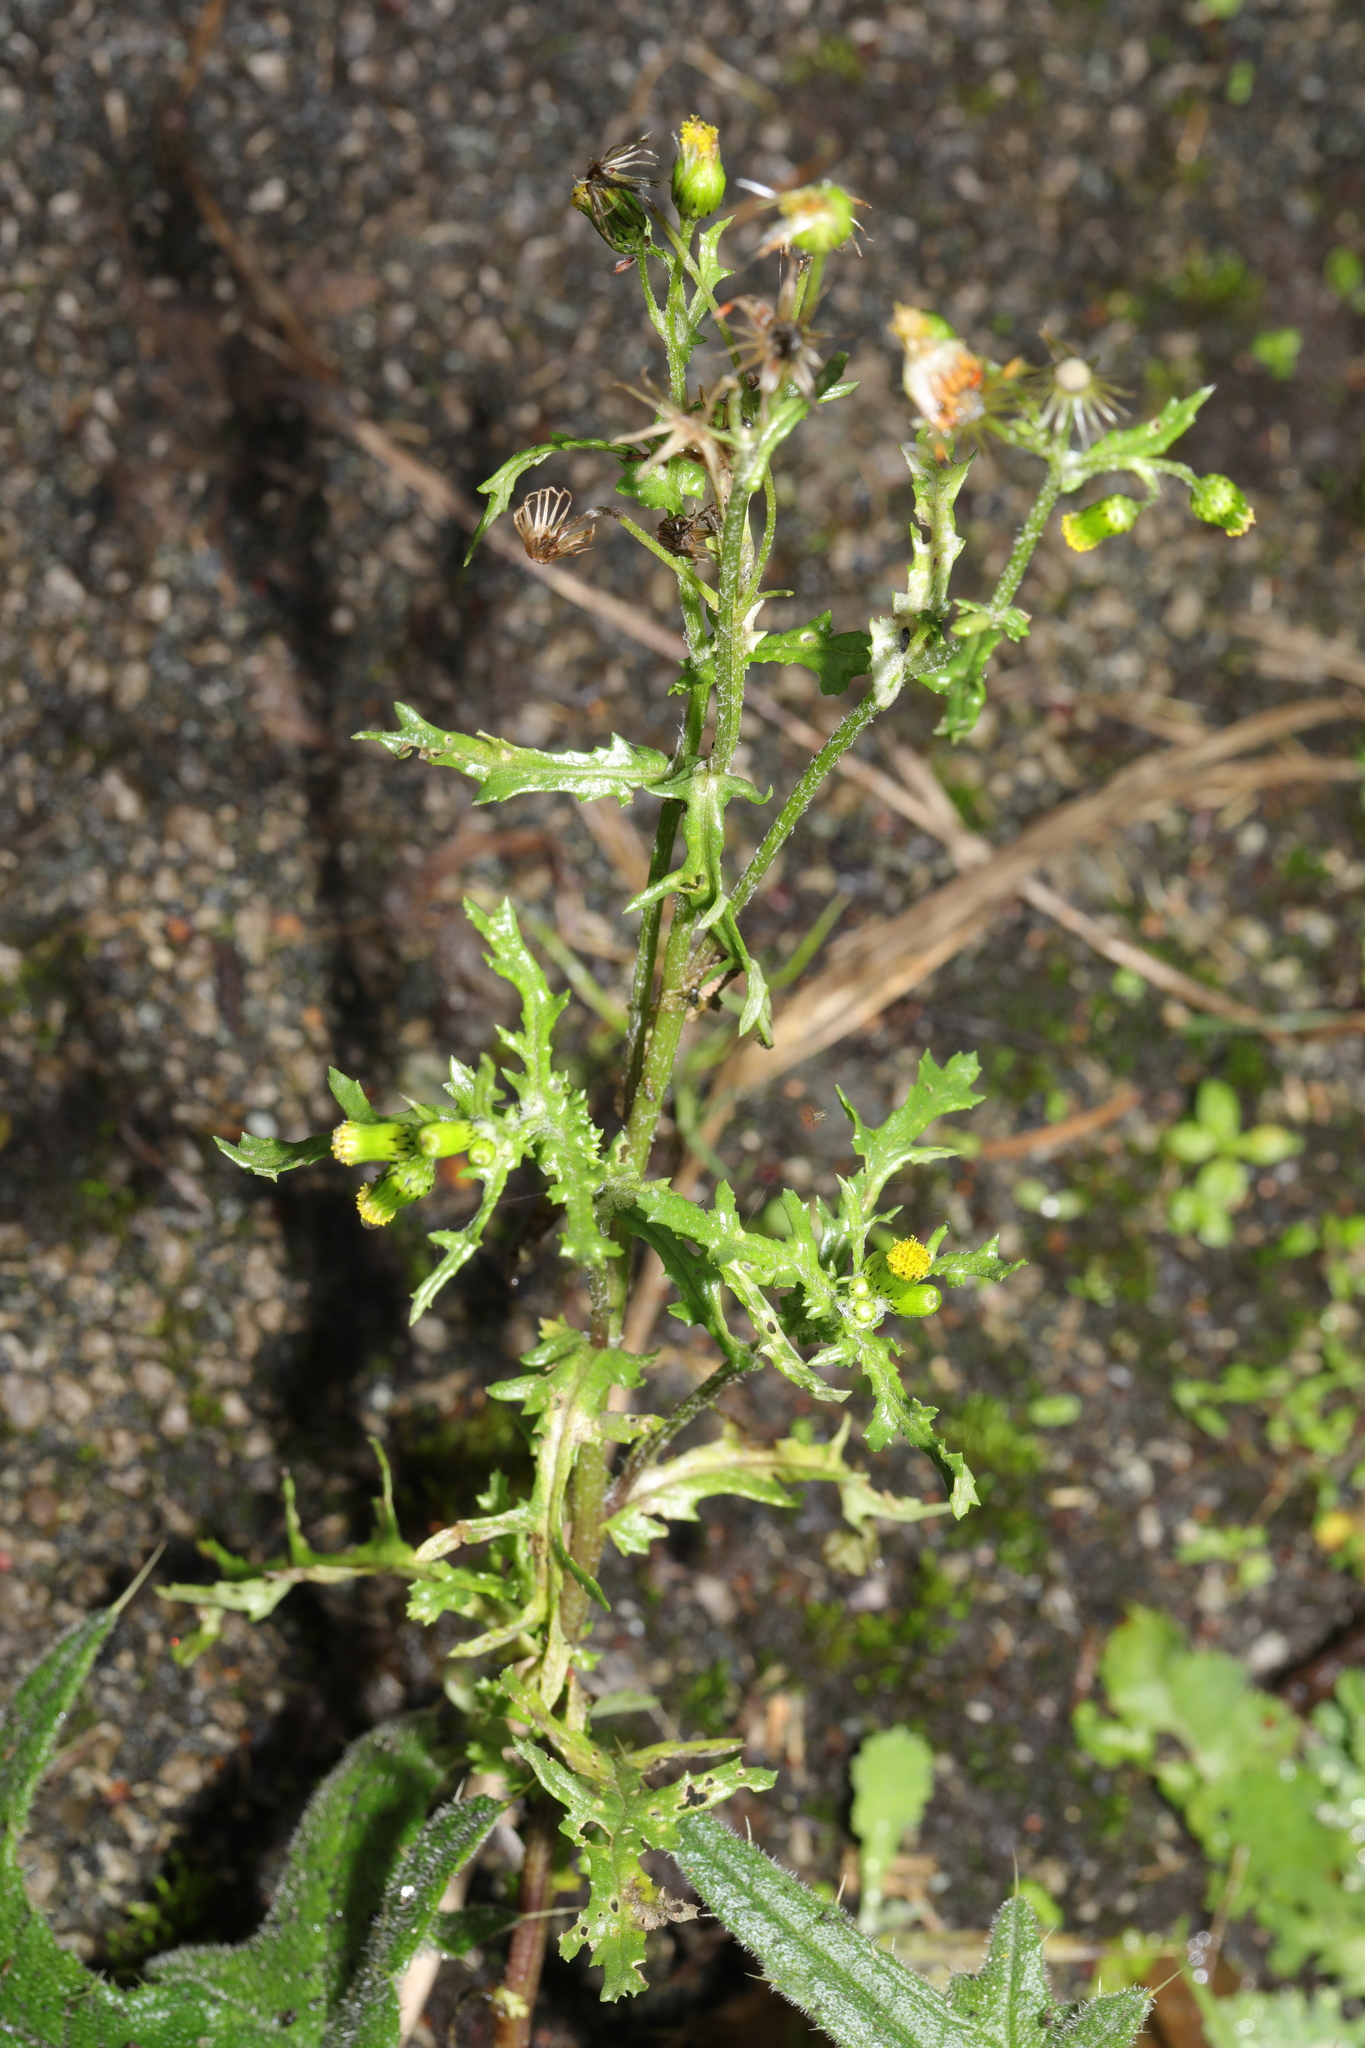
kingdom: Plantae
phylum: Tracheophyta
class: Magnoliopsida
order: Asterales
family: Asteraceae
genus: Senecio
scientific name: Senecio vulgaris
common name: Old-man-in-the-spring
